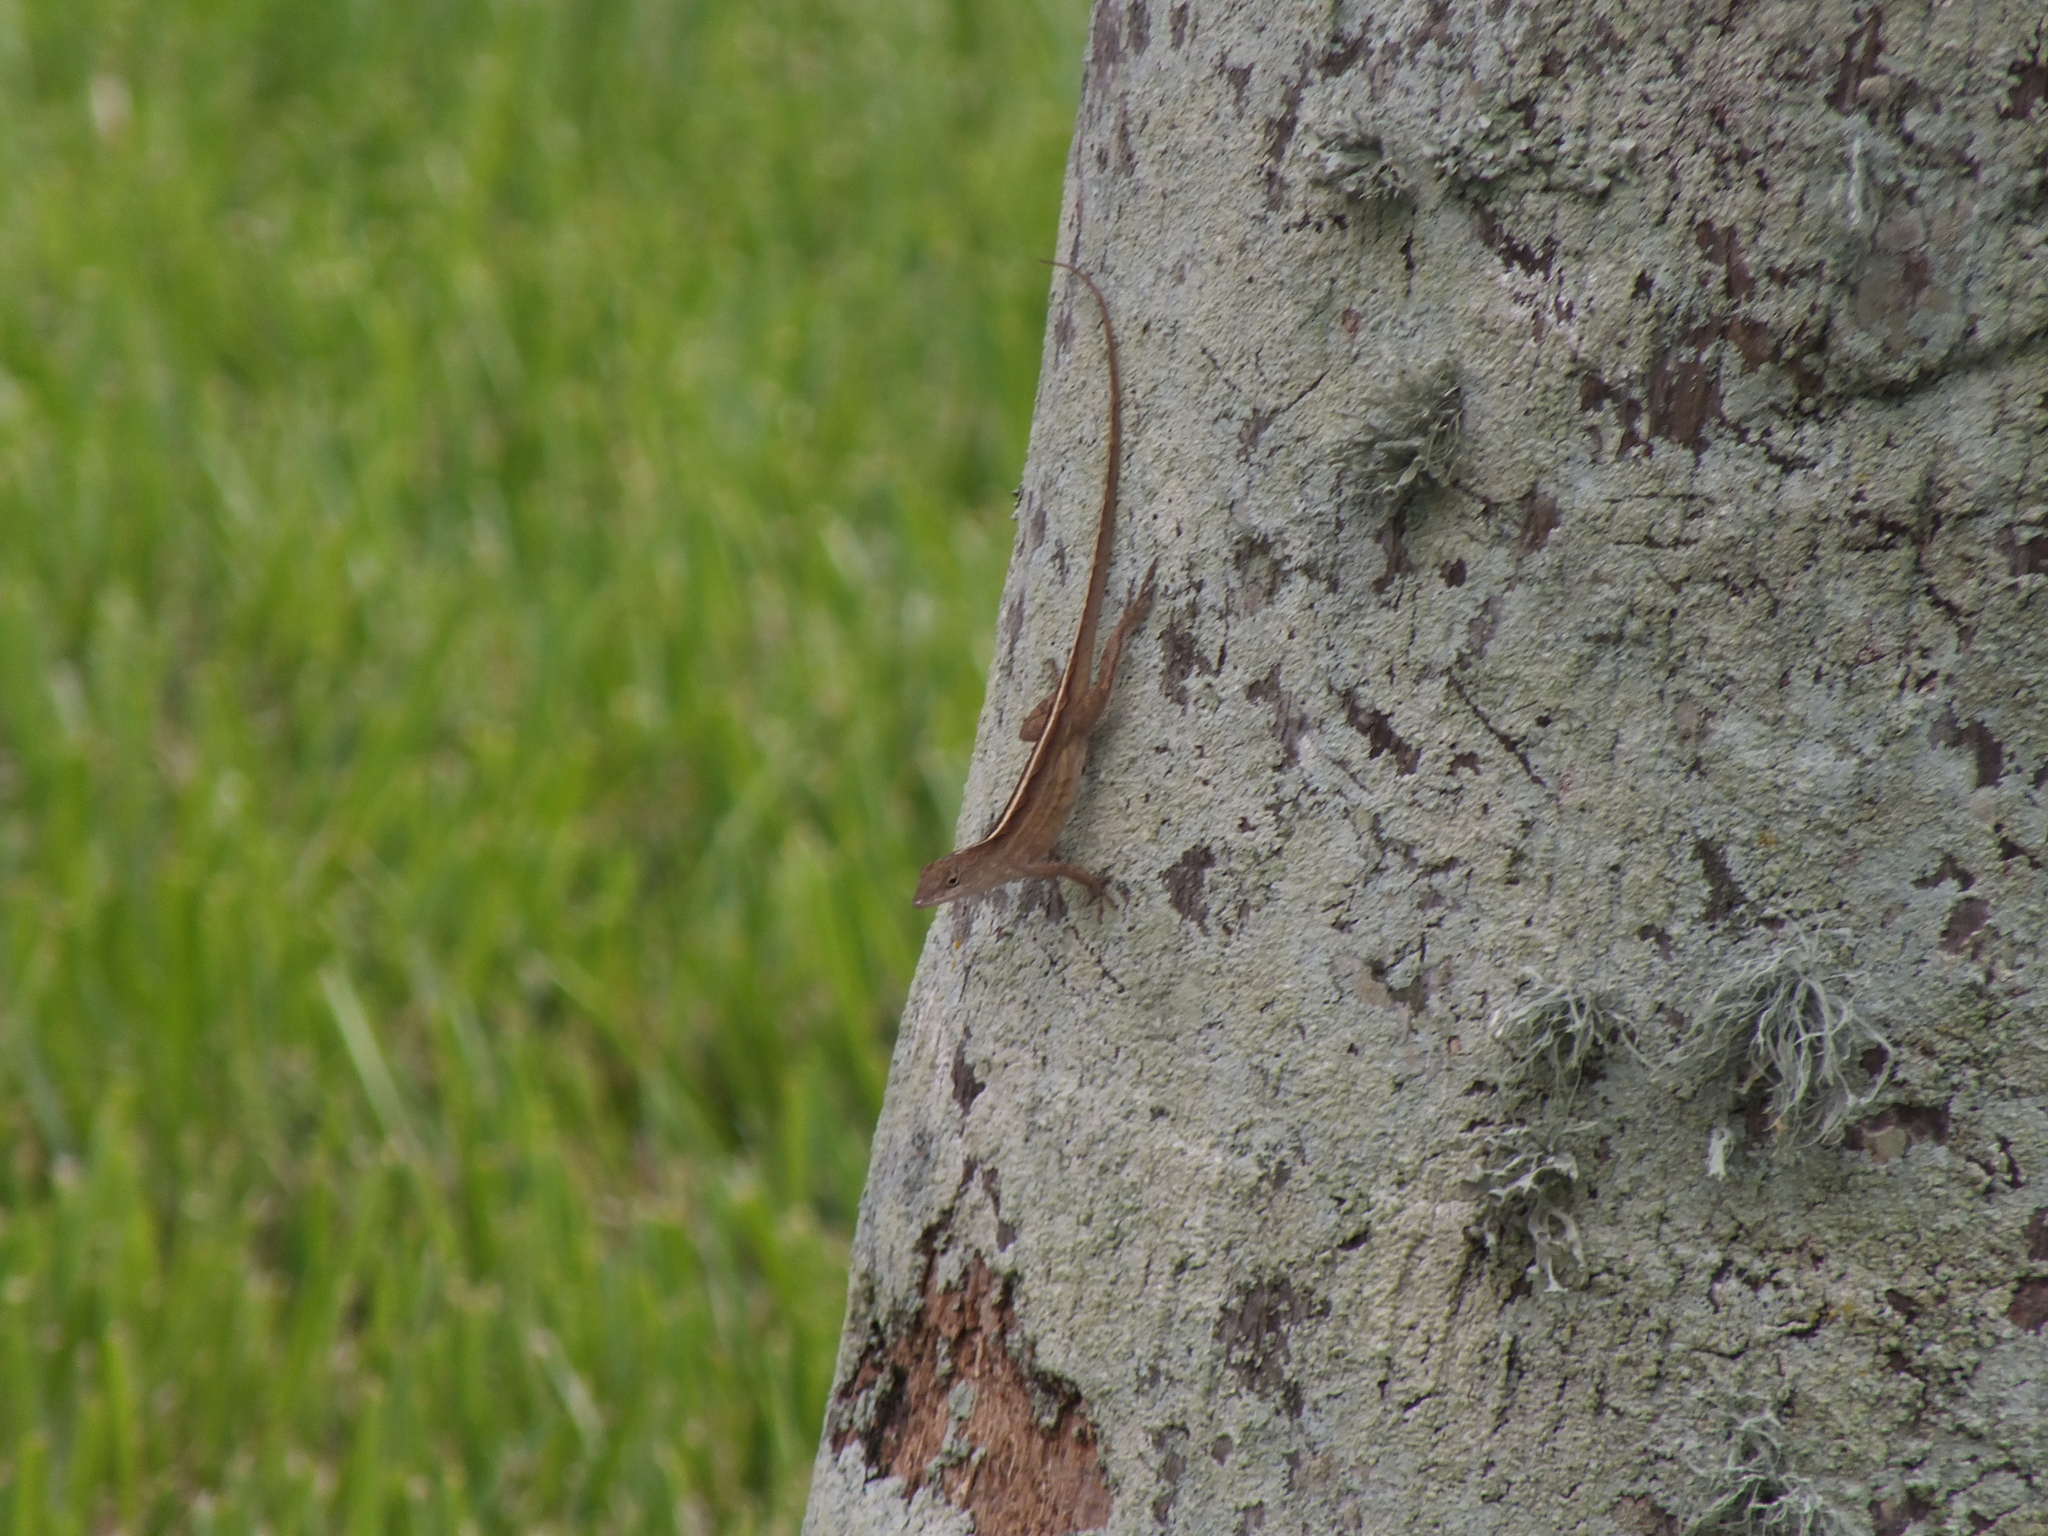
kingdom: Animalia
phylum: Chordata
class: Squamata
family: Dactyloidae
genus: Anolis
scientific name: Anolis sagrei
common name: Brown anole
